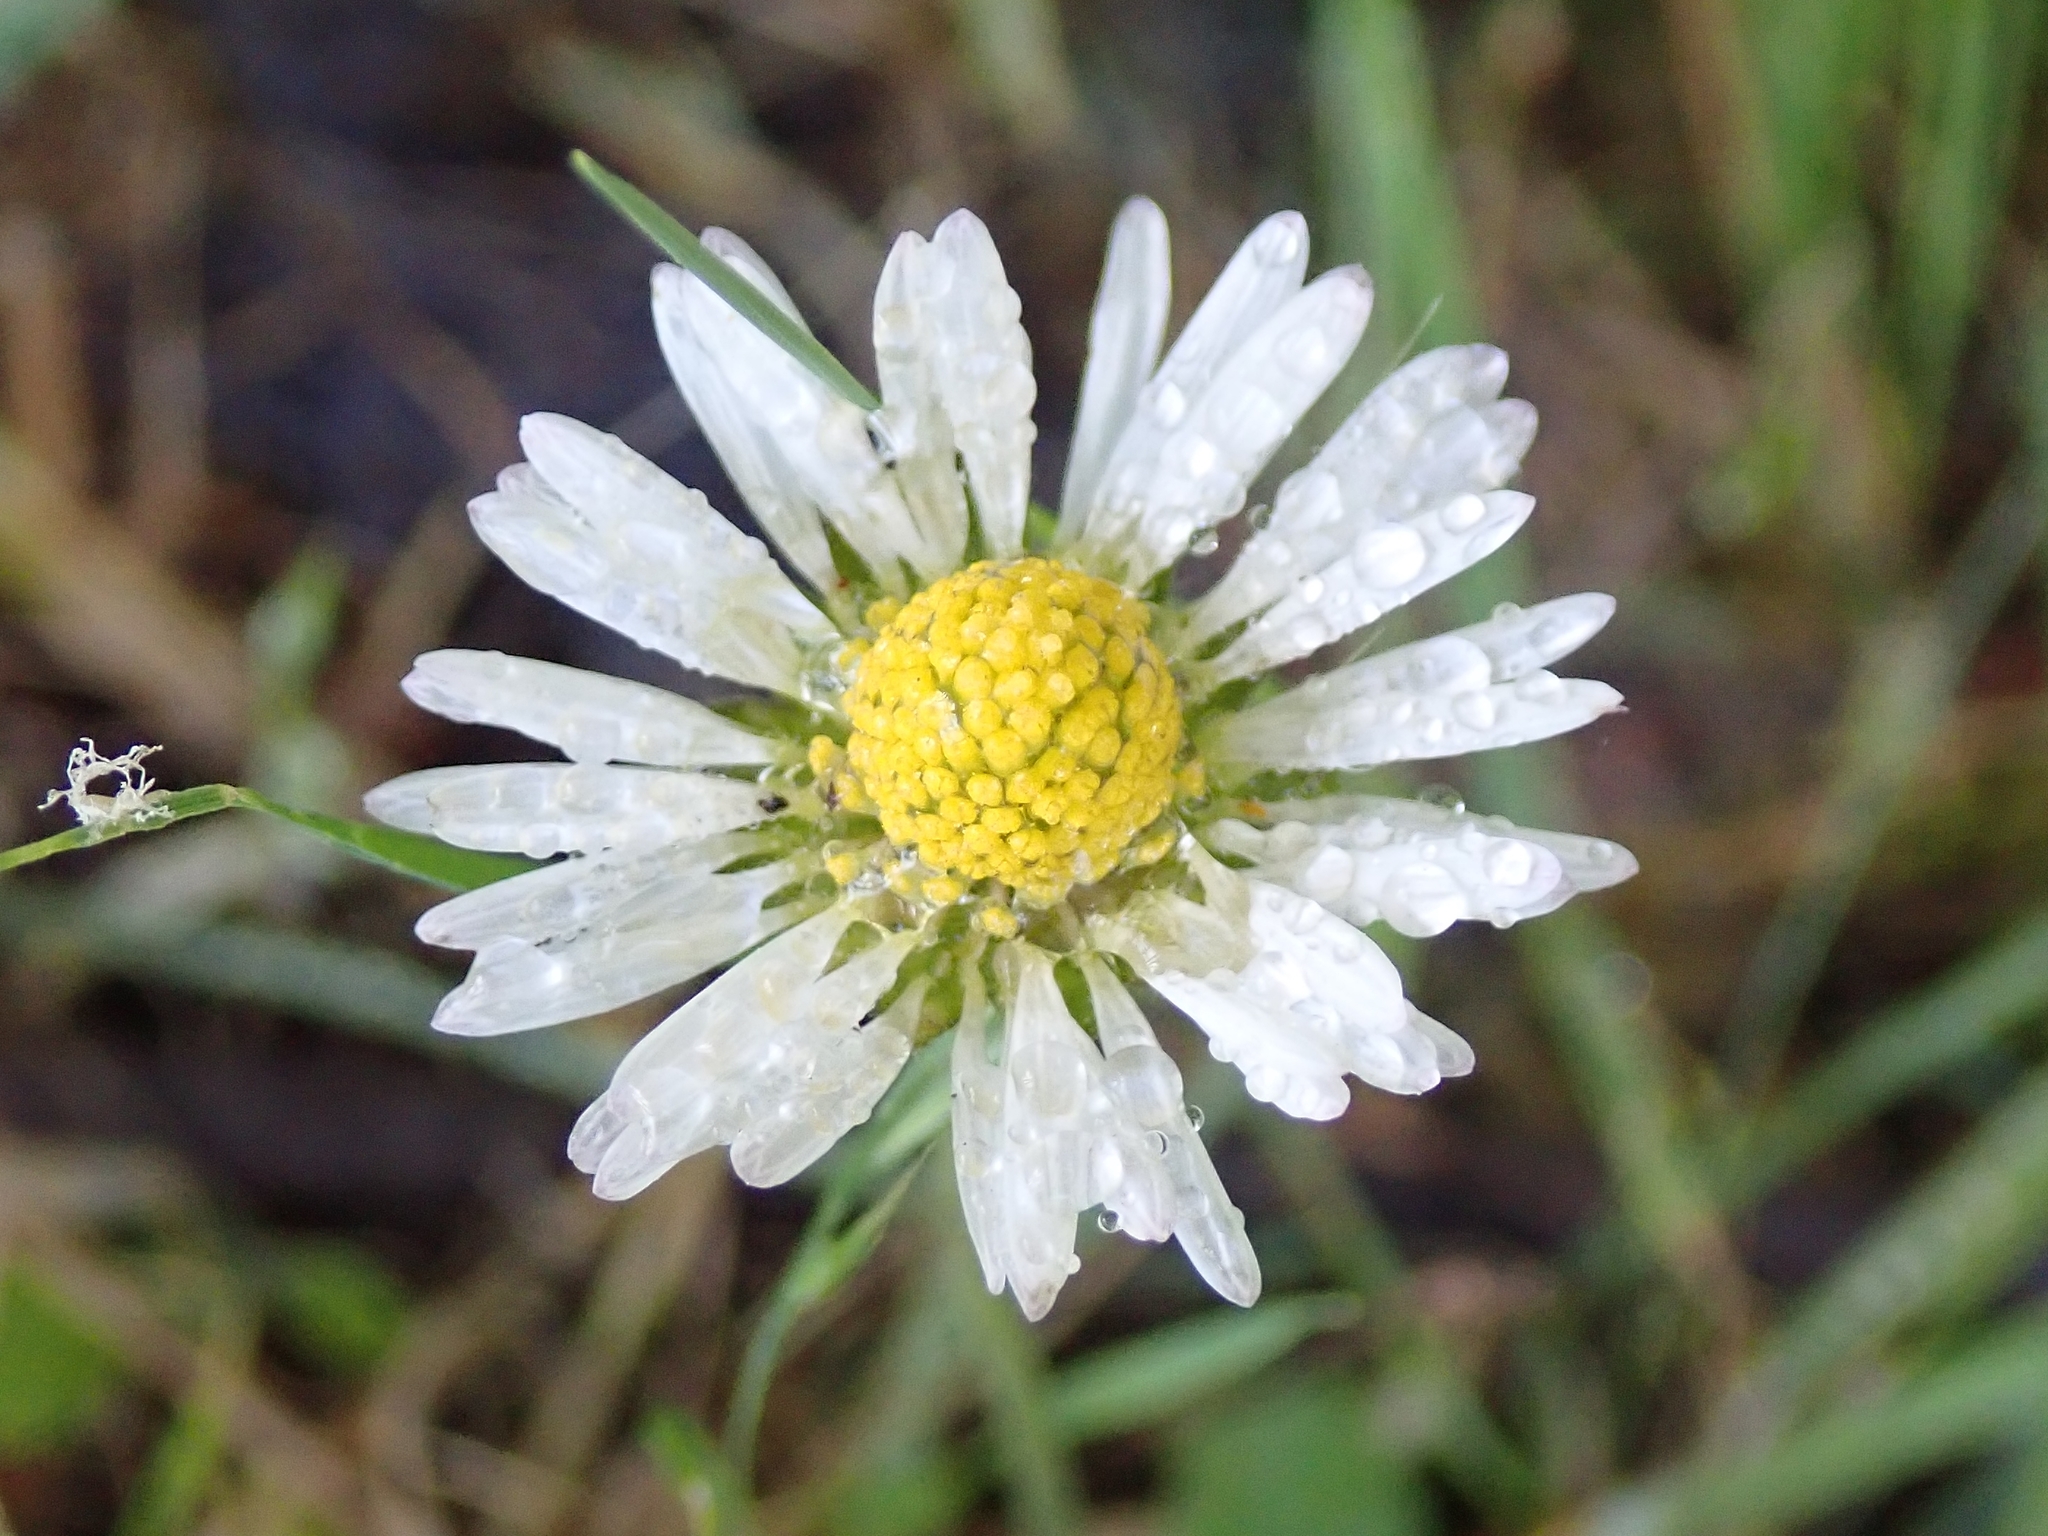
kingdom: Plantae
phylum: Tracheophyta
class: Magnoliopsida
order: Asterales
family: Asteraceae
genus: Bellis
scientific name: Bellis perennis
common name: Lawndaisy
